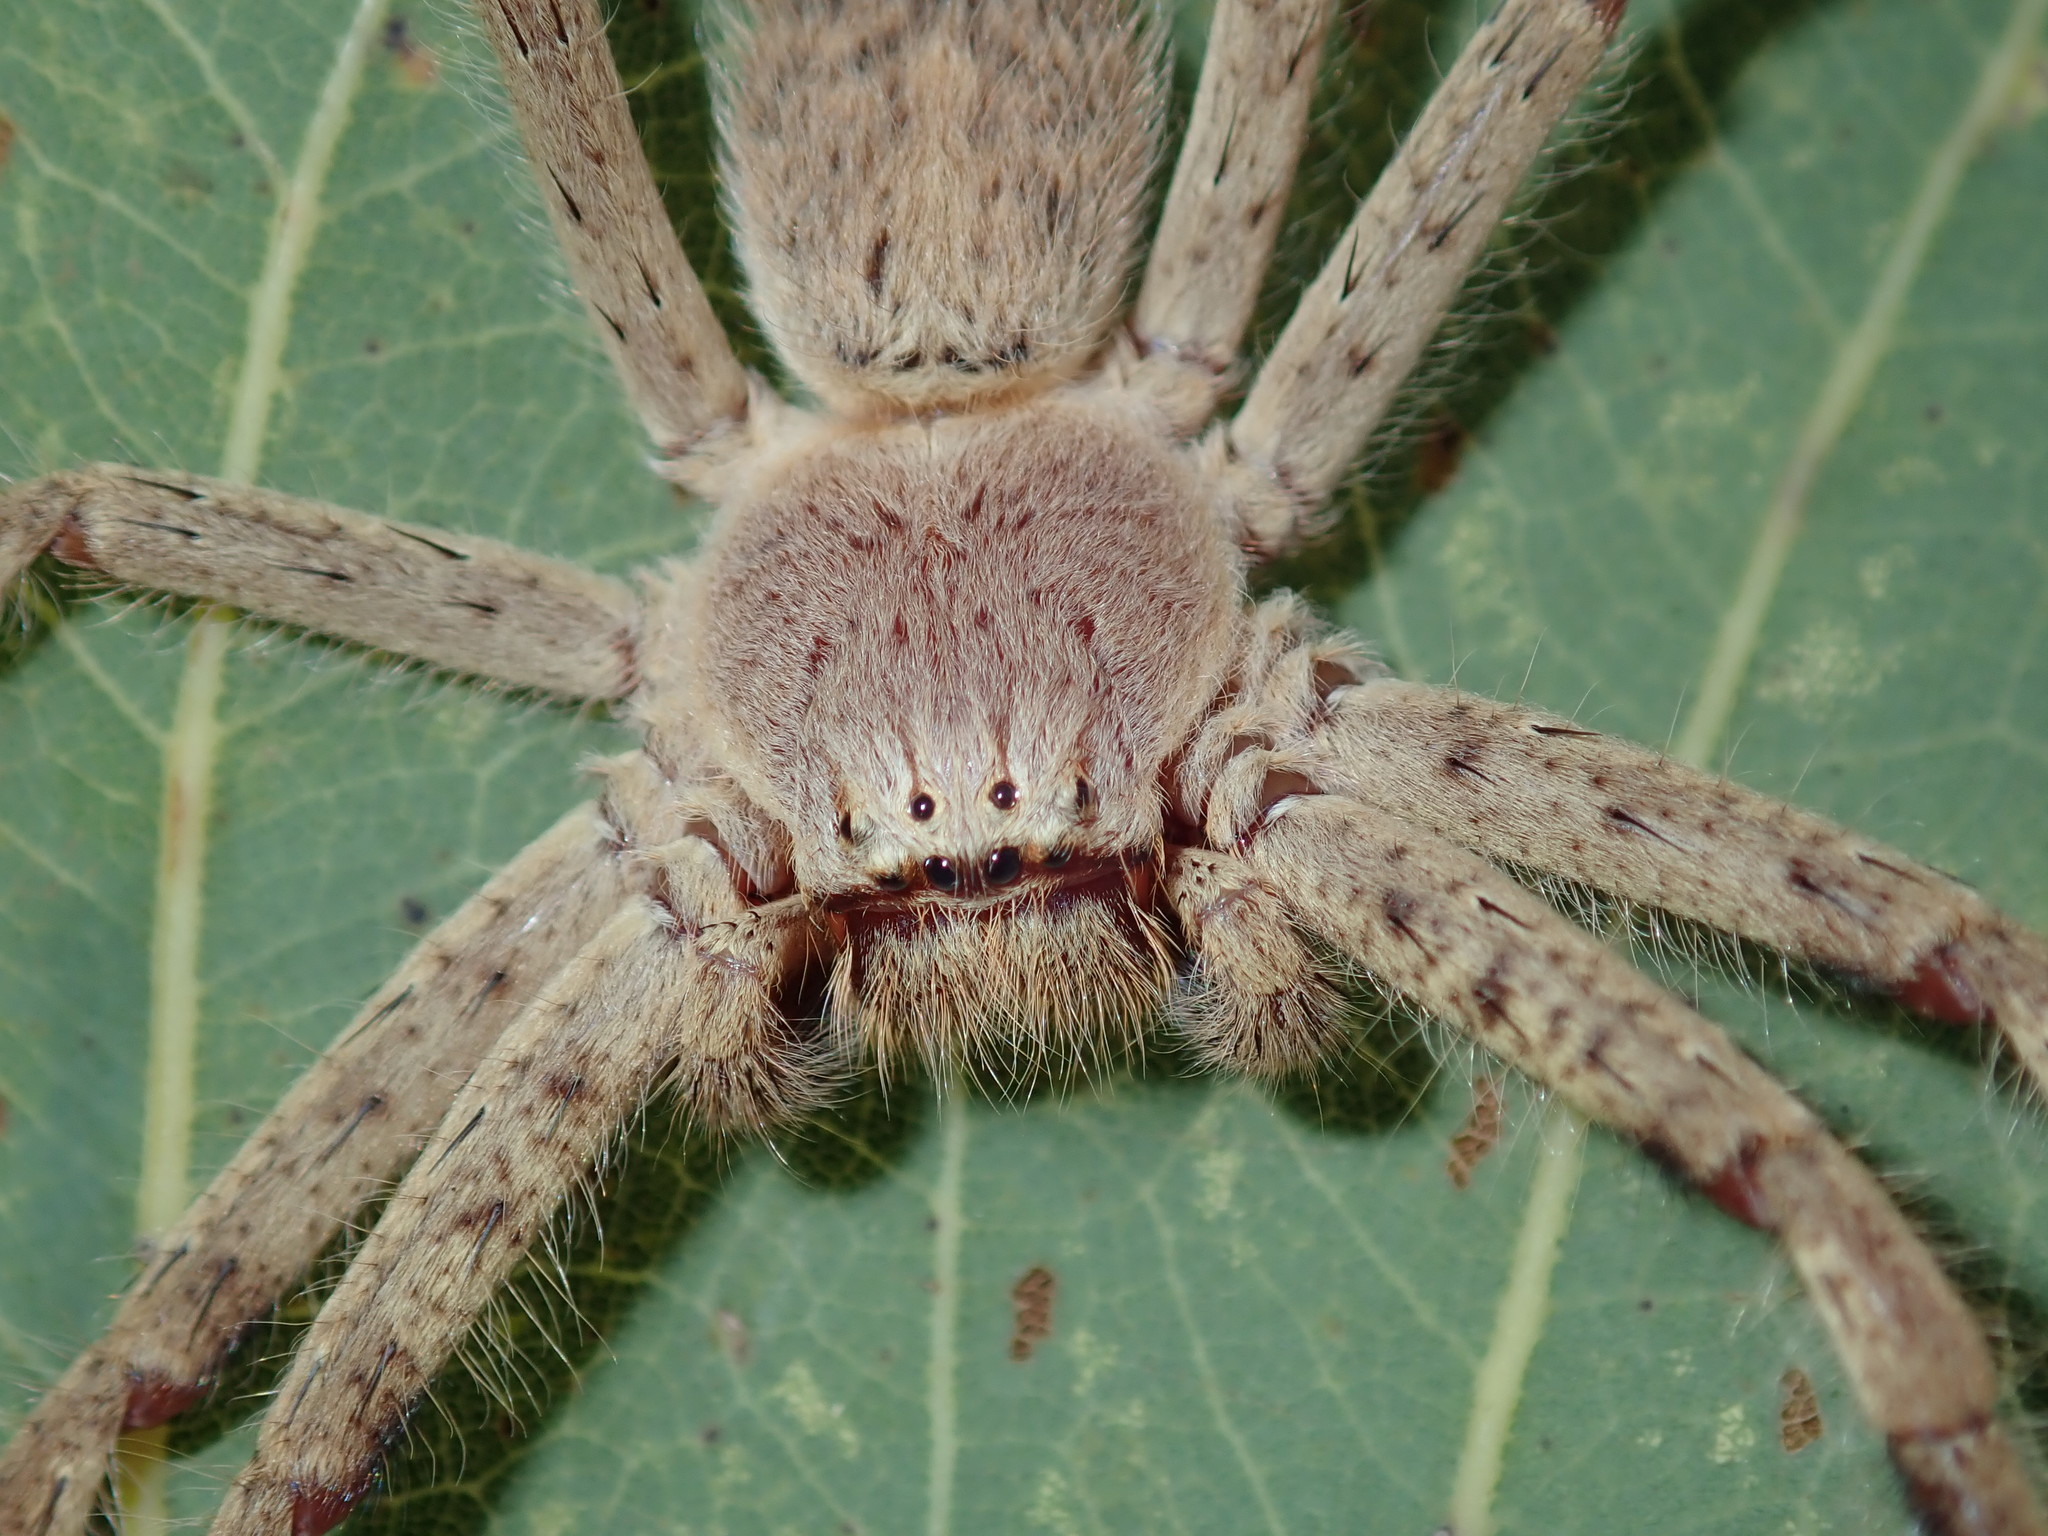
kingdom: Animalia
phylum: Arthropoda
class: Arachnida
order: Araneae
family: Sparassidae
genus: Isopedella
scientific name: Isopedella meraukensis
